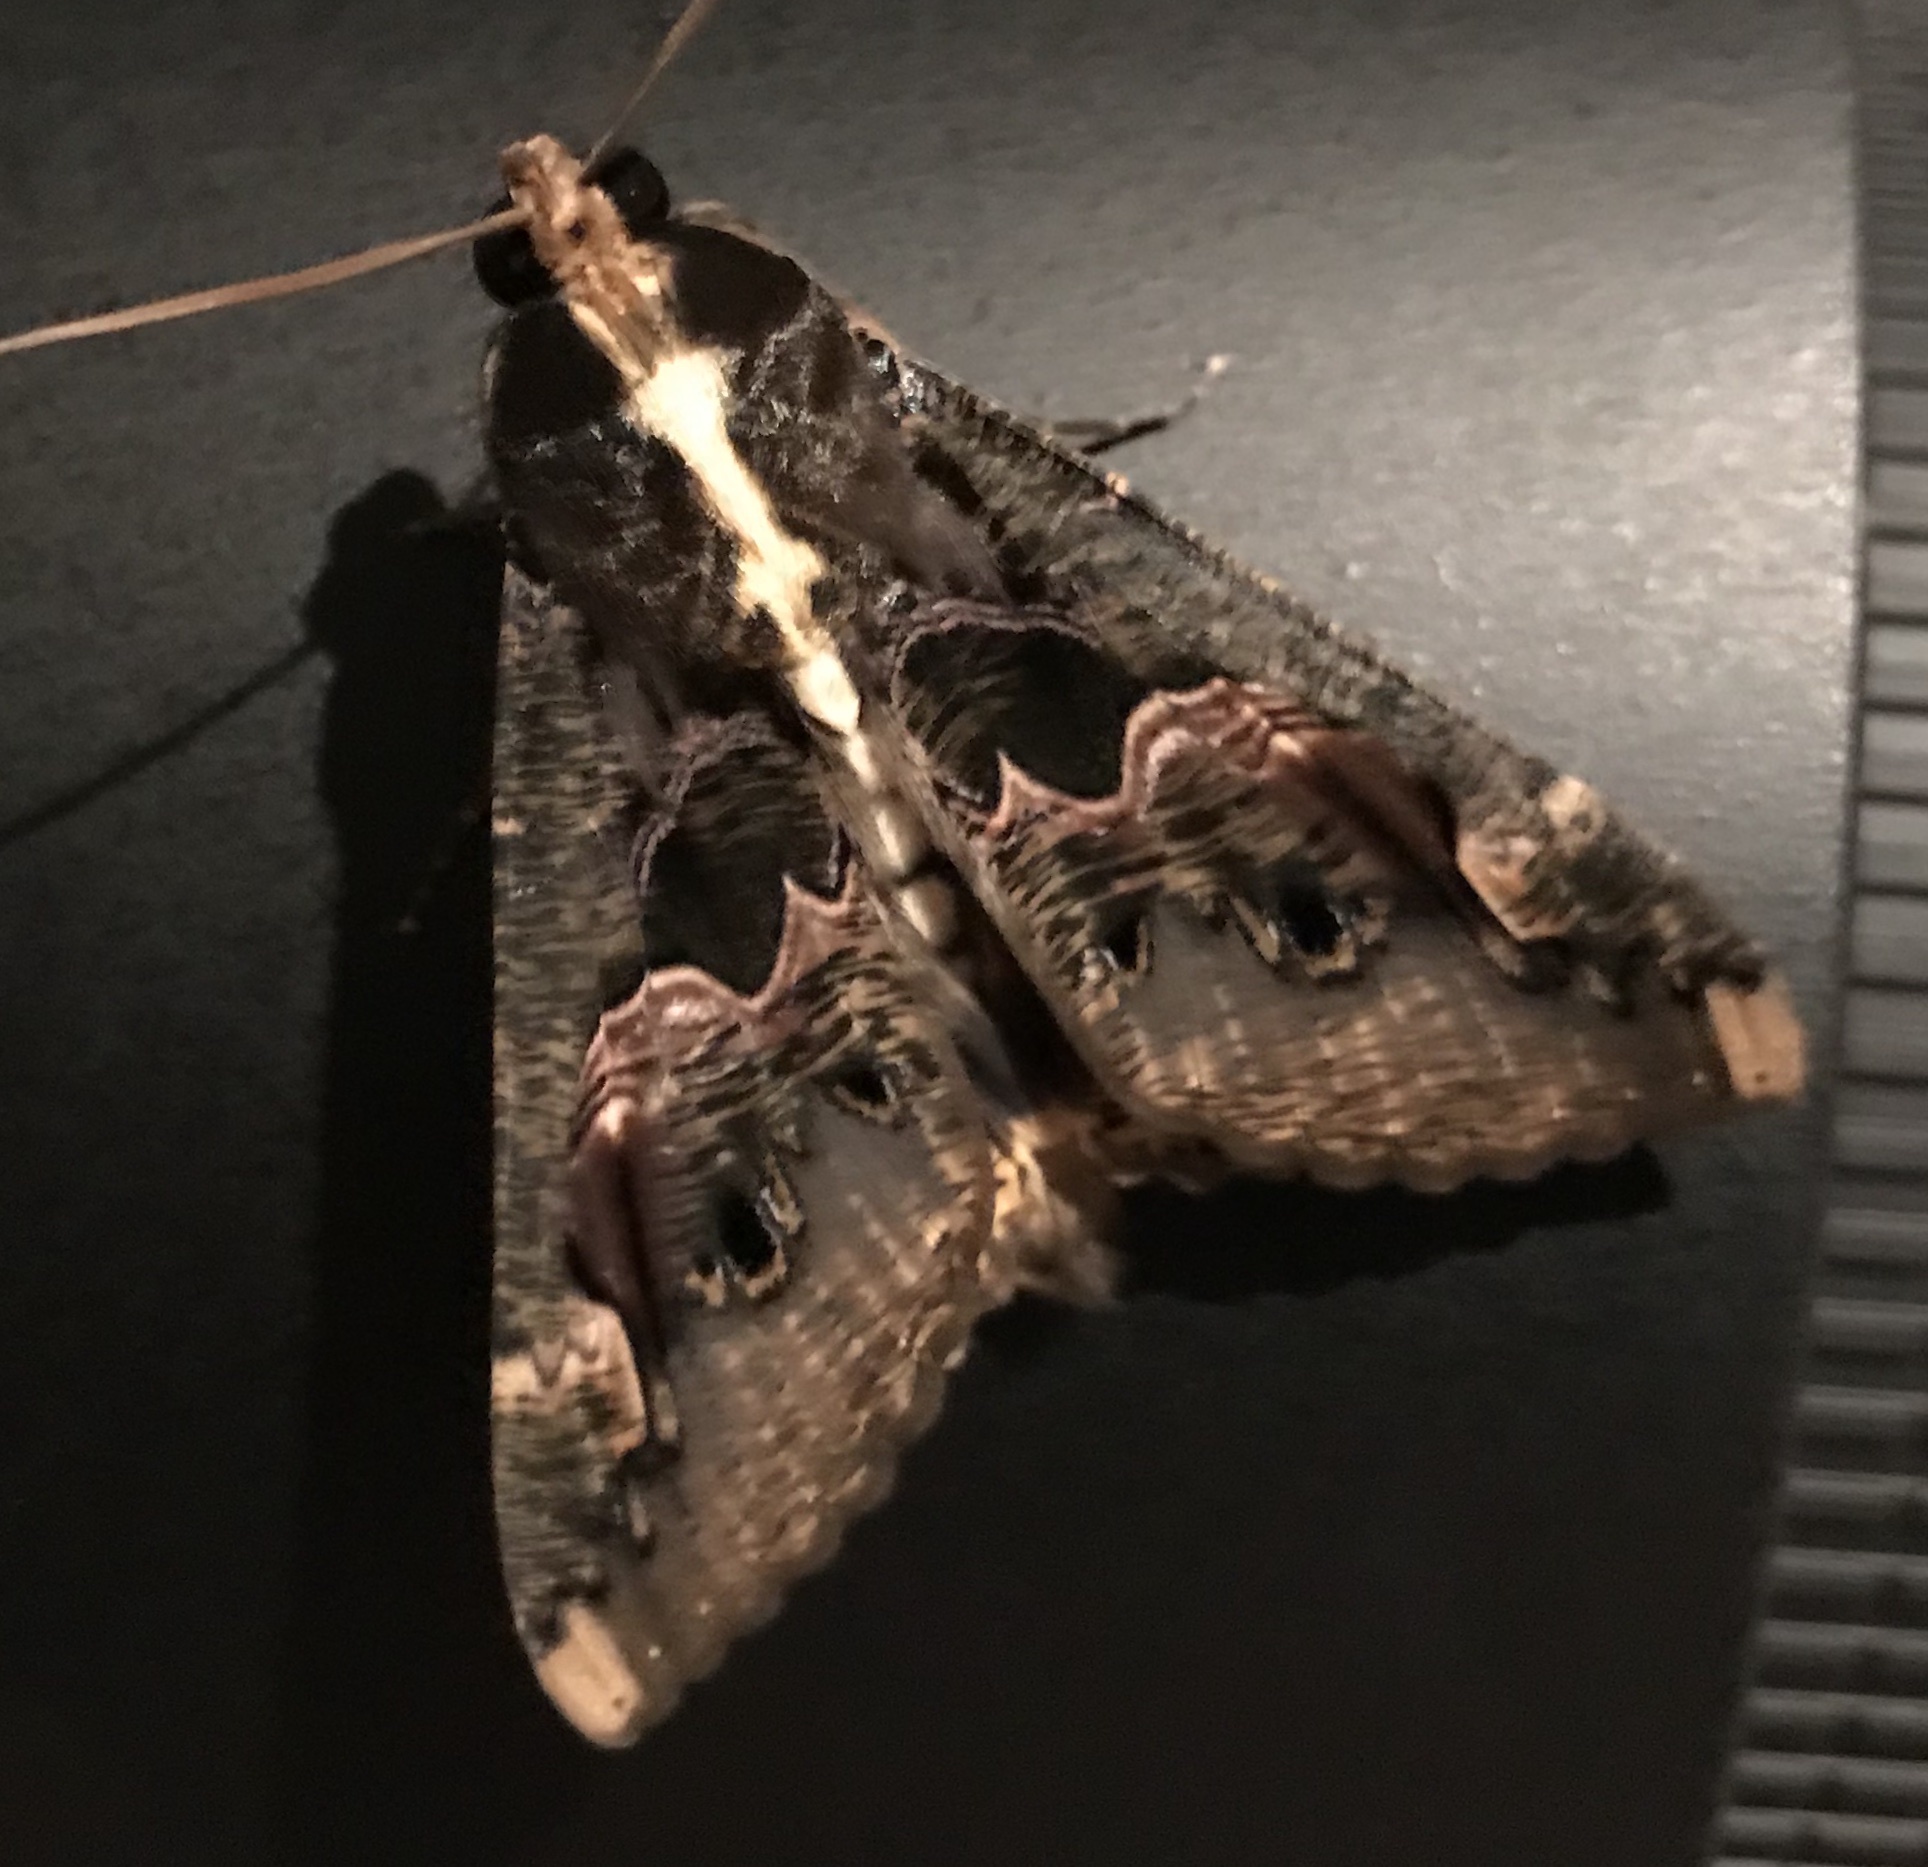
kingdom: Animalia
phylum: Arthropoda
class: Insecta
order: Lepidoptera
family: Erebidae
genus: Sphingomorpha
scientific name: Sphingomorpha chlorea
